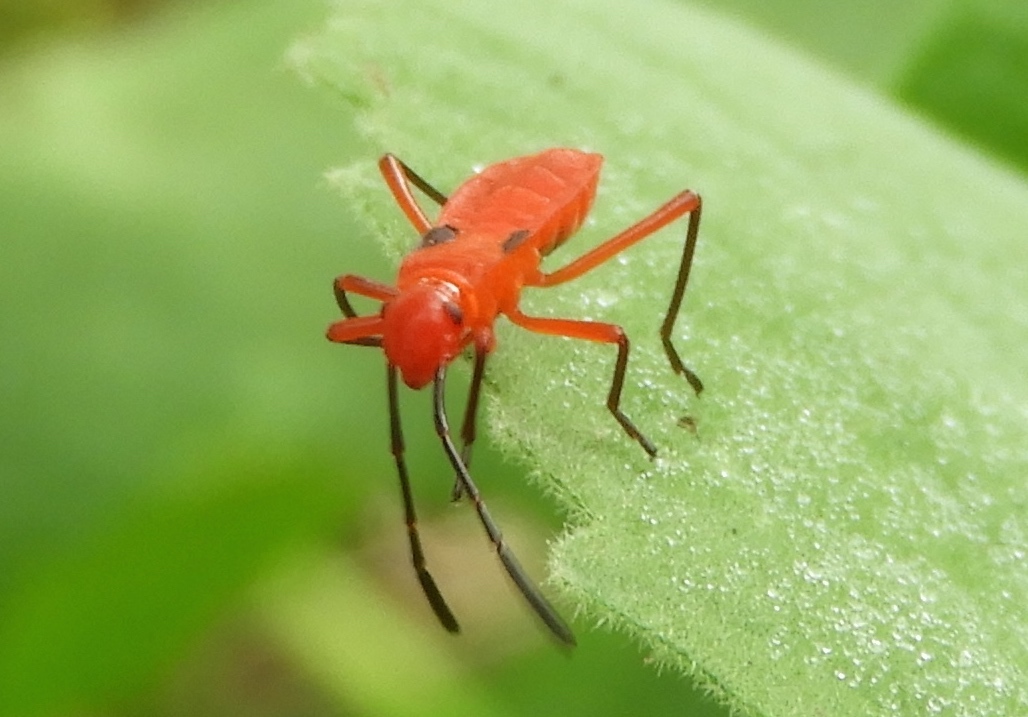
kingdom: Animalia
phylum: Arthropoda
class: Insecta
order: Hemiptera
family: Pyrrhocoridae
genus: Dysdercus
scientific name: Dysdercus
